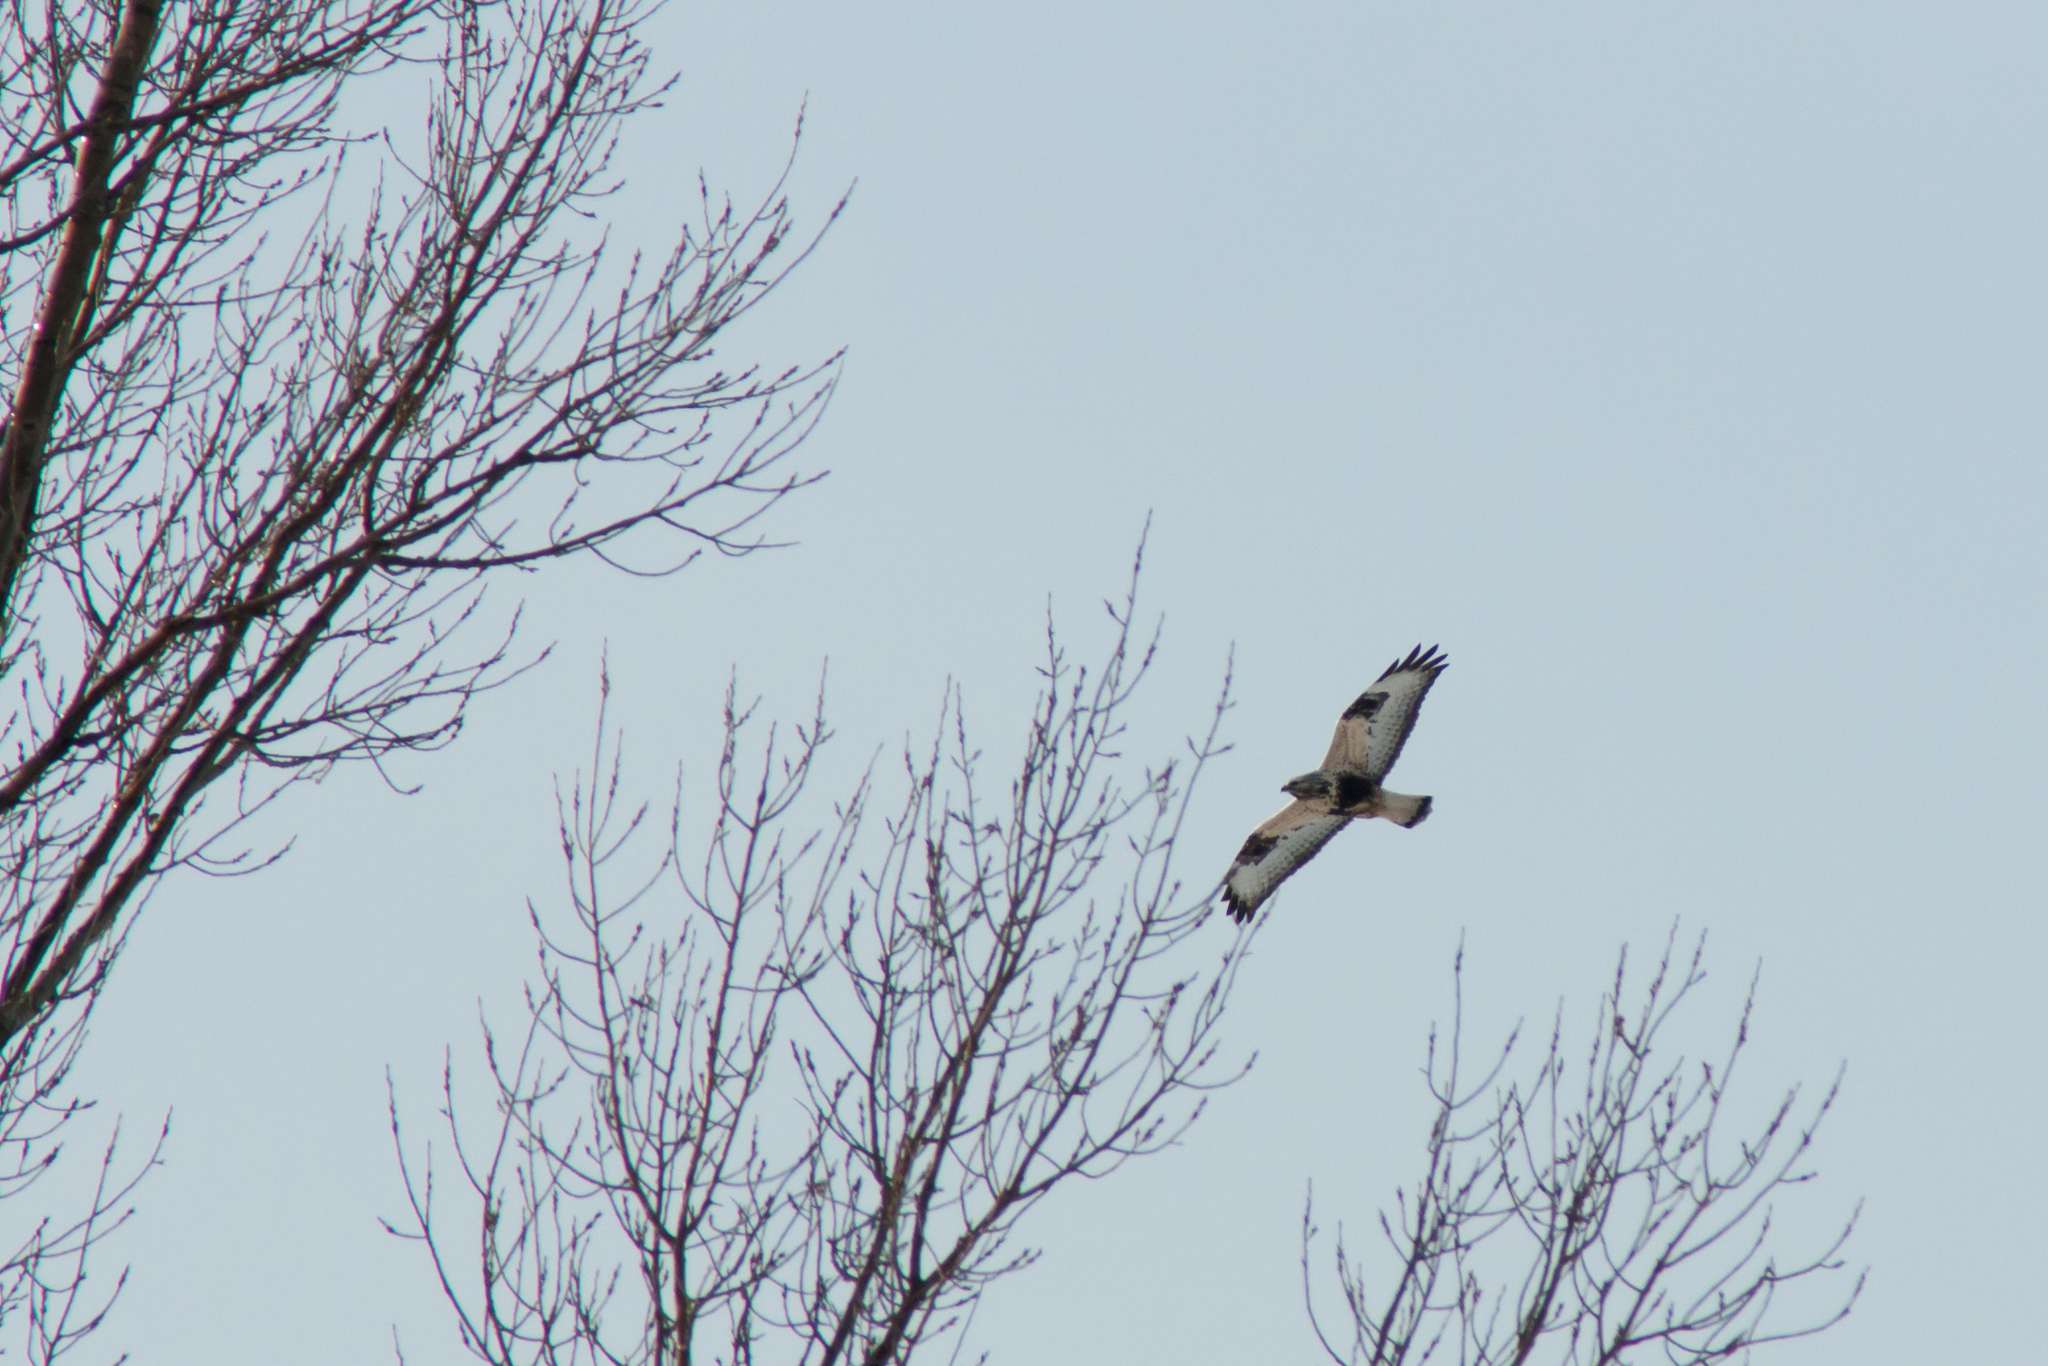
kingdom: Animalia
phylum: Chordata
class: Aves
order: Accipitriformes
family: Accipitridae
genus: Buteo
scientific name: Buteo lagopus
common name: Rough-legged buzzard
